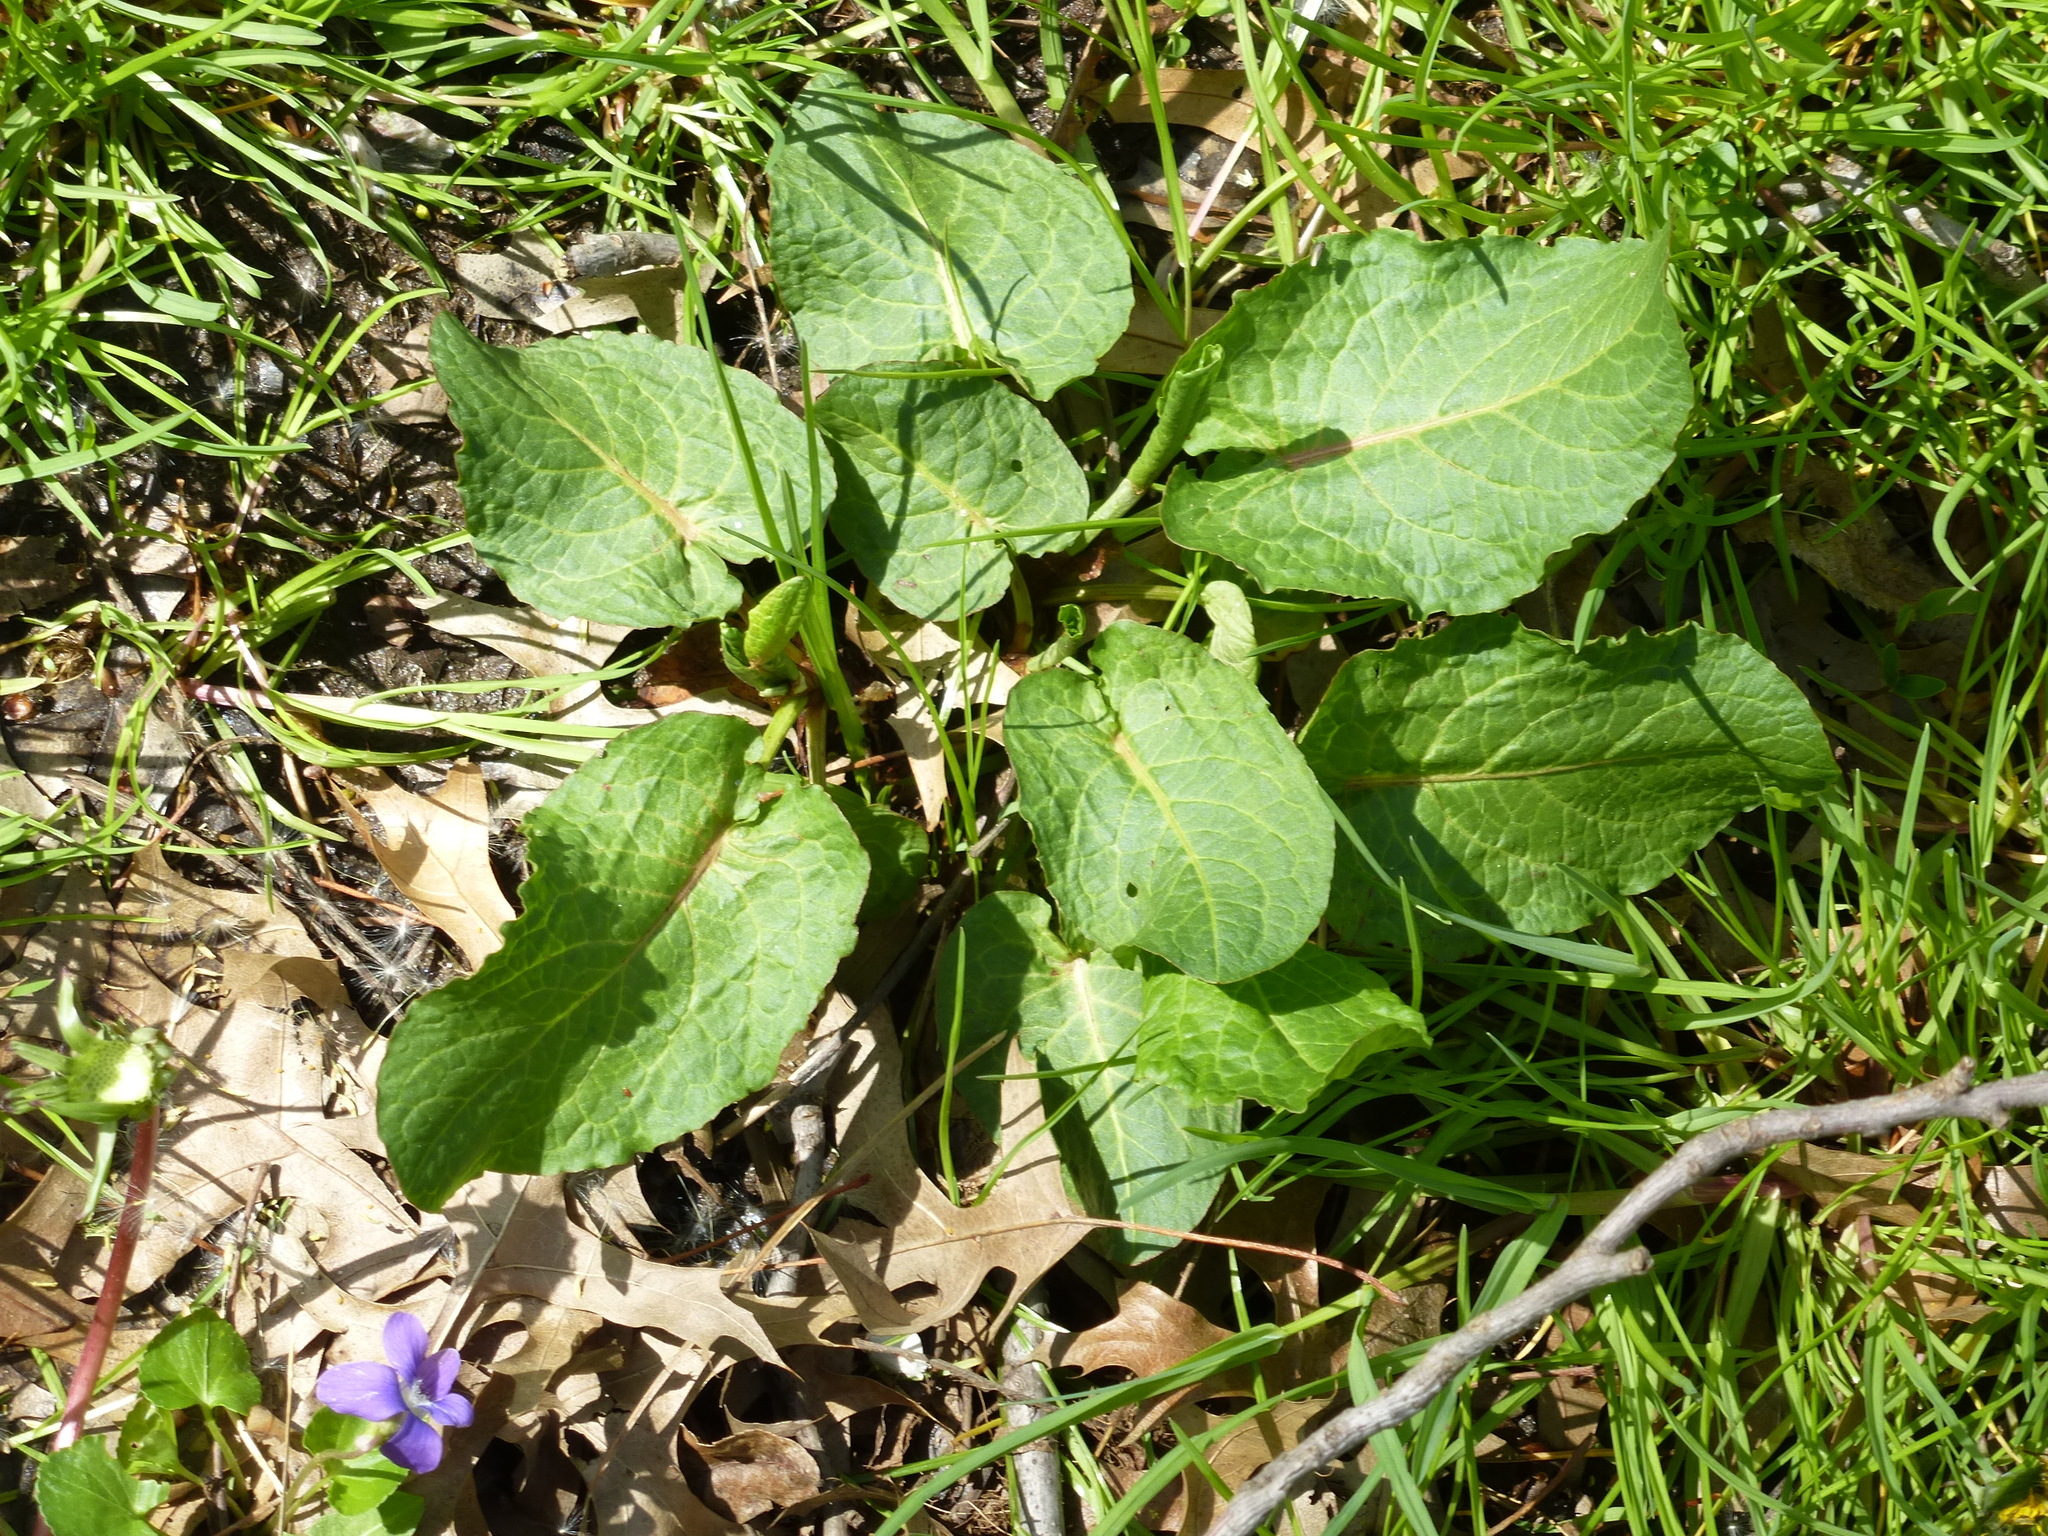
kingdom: Plantae
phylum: Tracheophyta
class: Magnoliopsida
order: Caryophyllales
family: Polygonaceae
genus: Rumex
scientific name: Rumex obtusifolius
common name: Bitter dock
